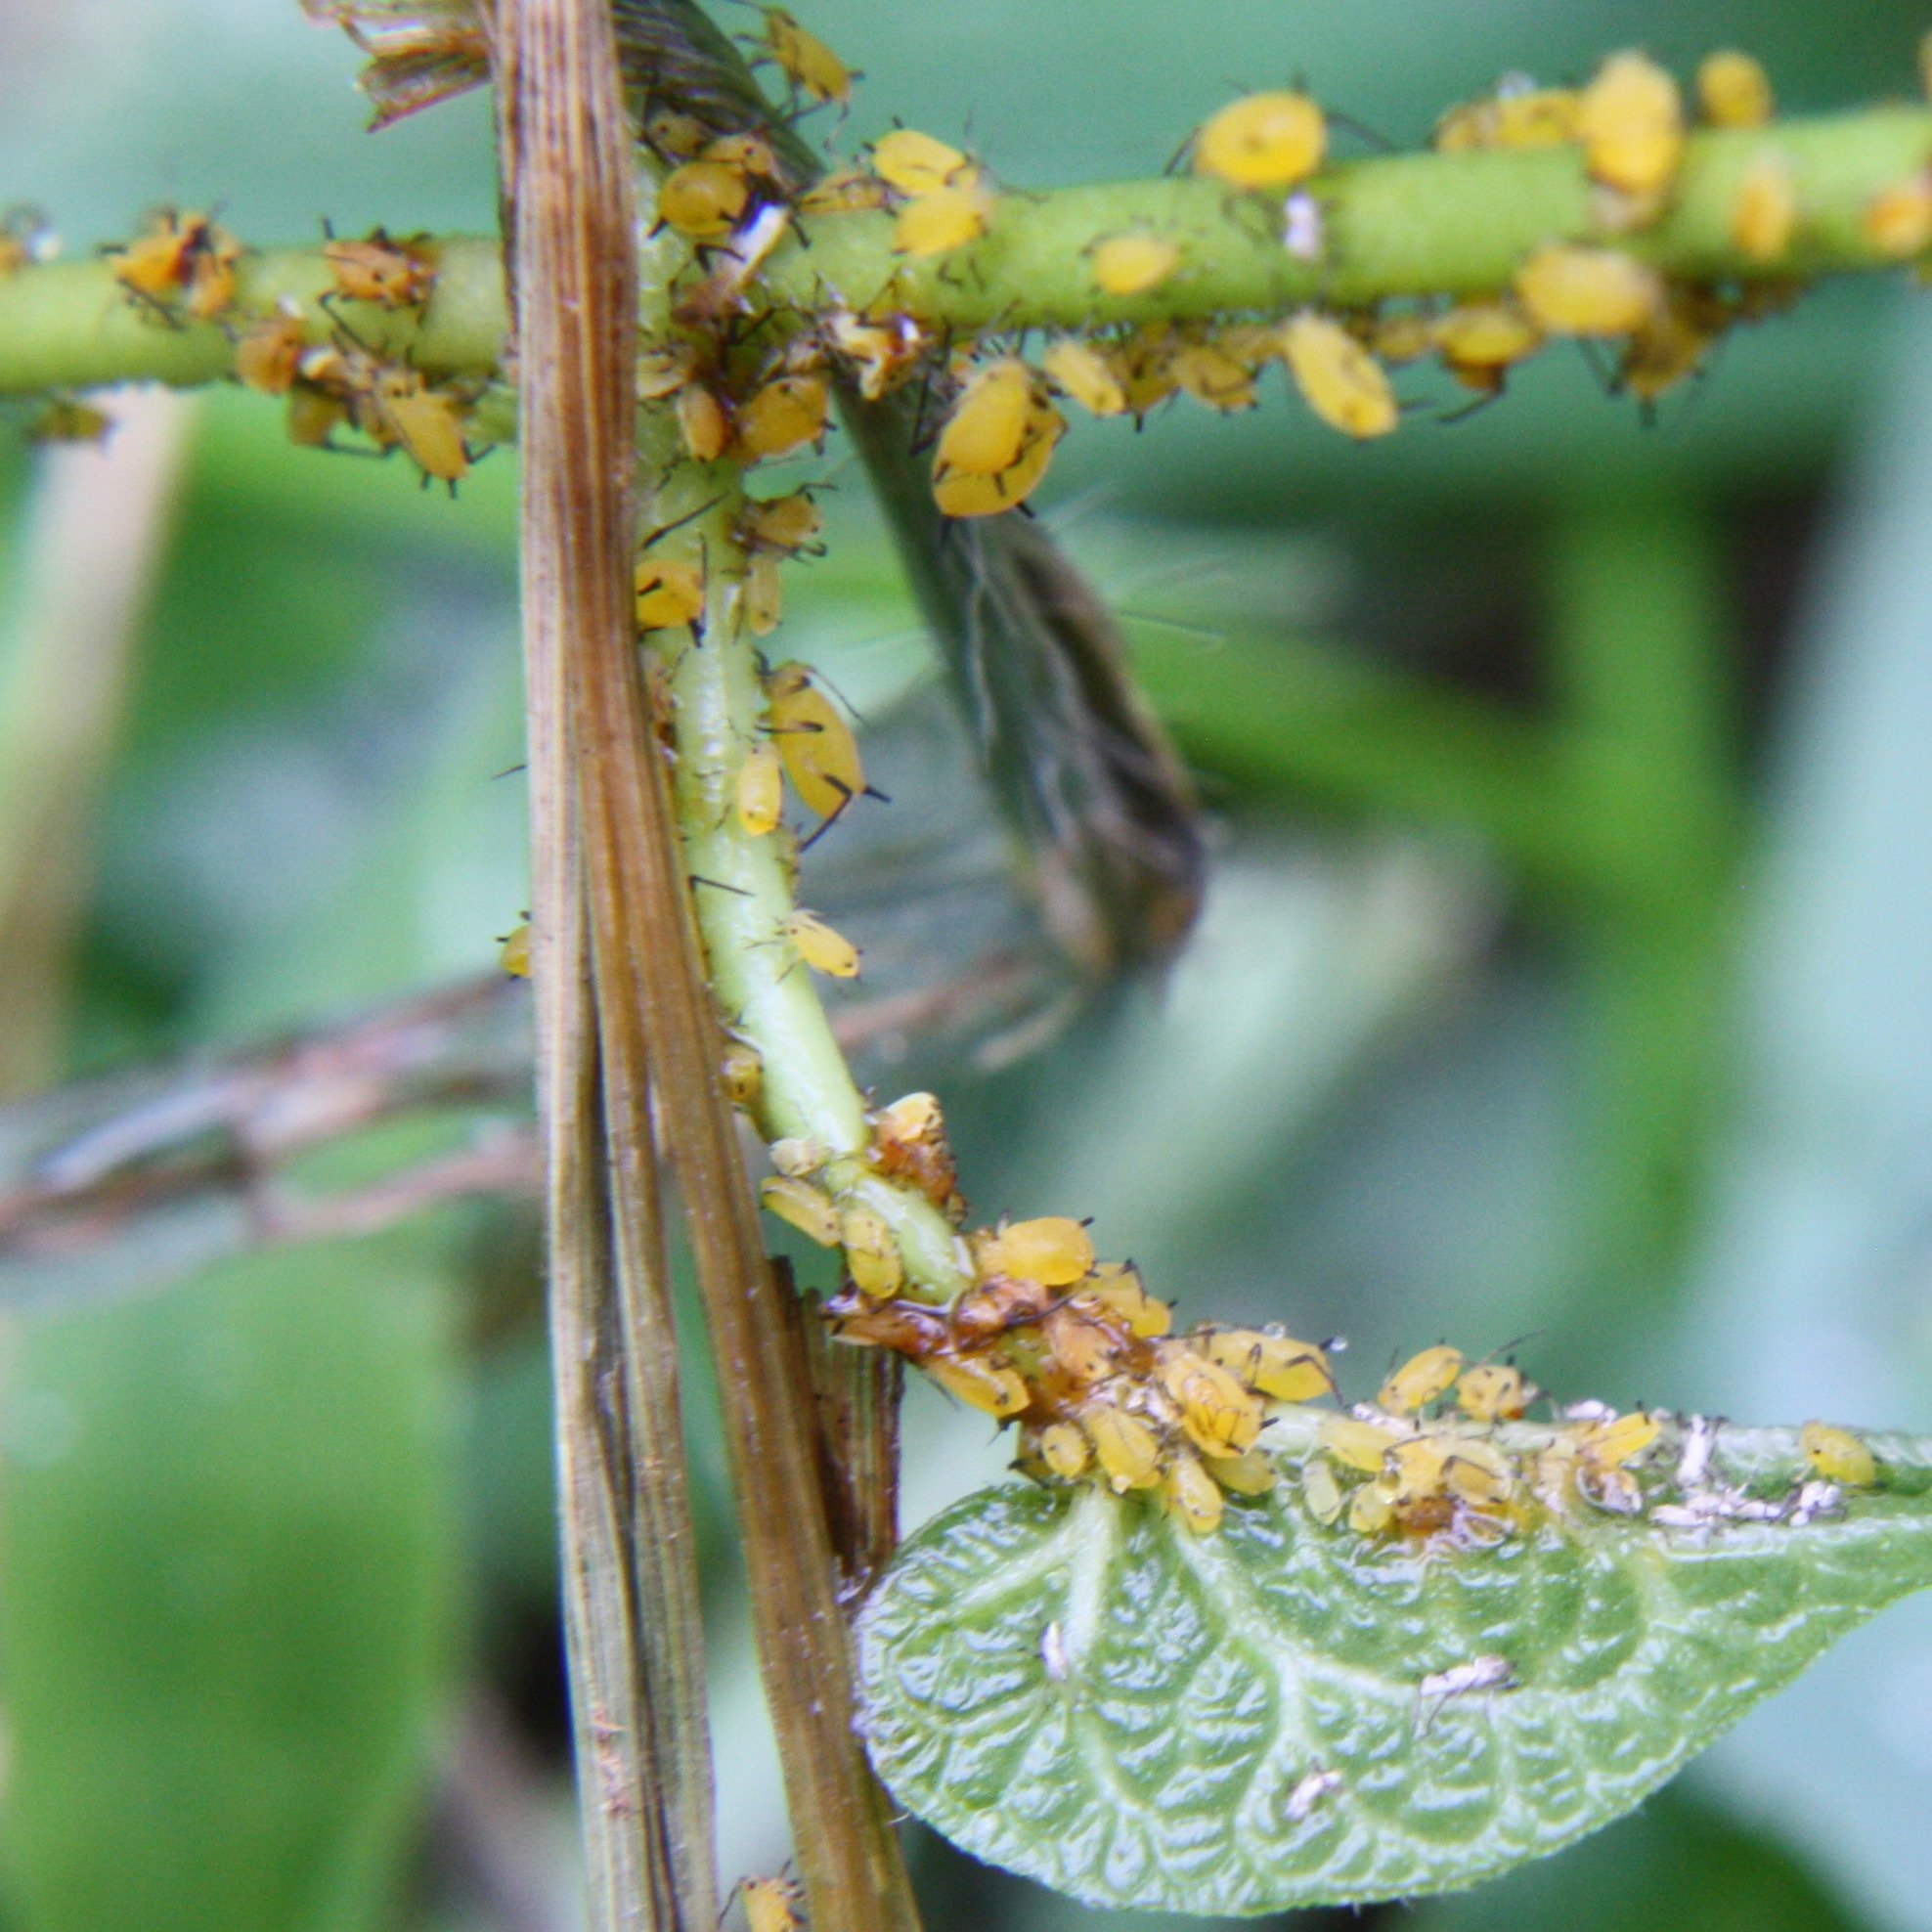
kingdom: Animalia
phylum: Arthropoda
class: Insecta
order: Hemiptera
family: Aphididae
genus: Aphis
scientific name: Aphis nerii
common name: Oleander aphid
